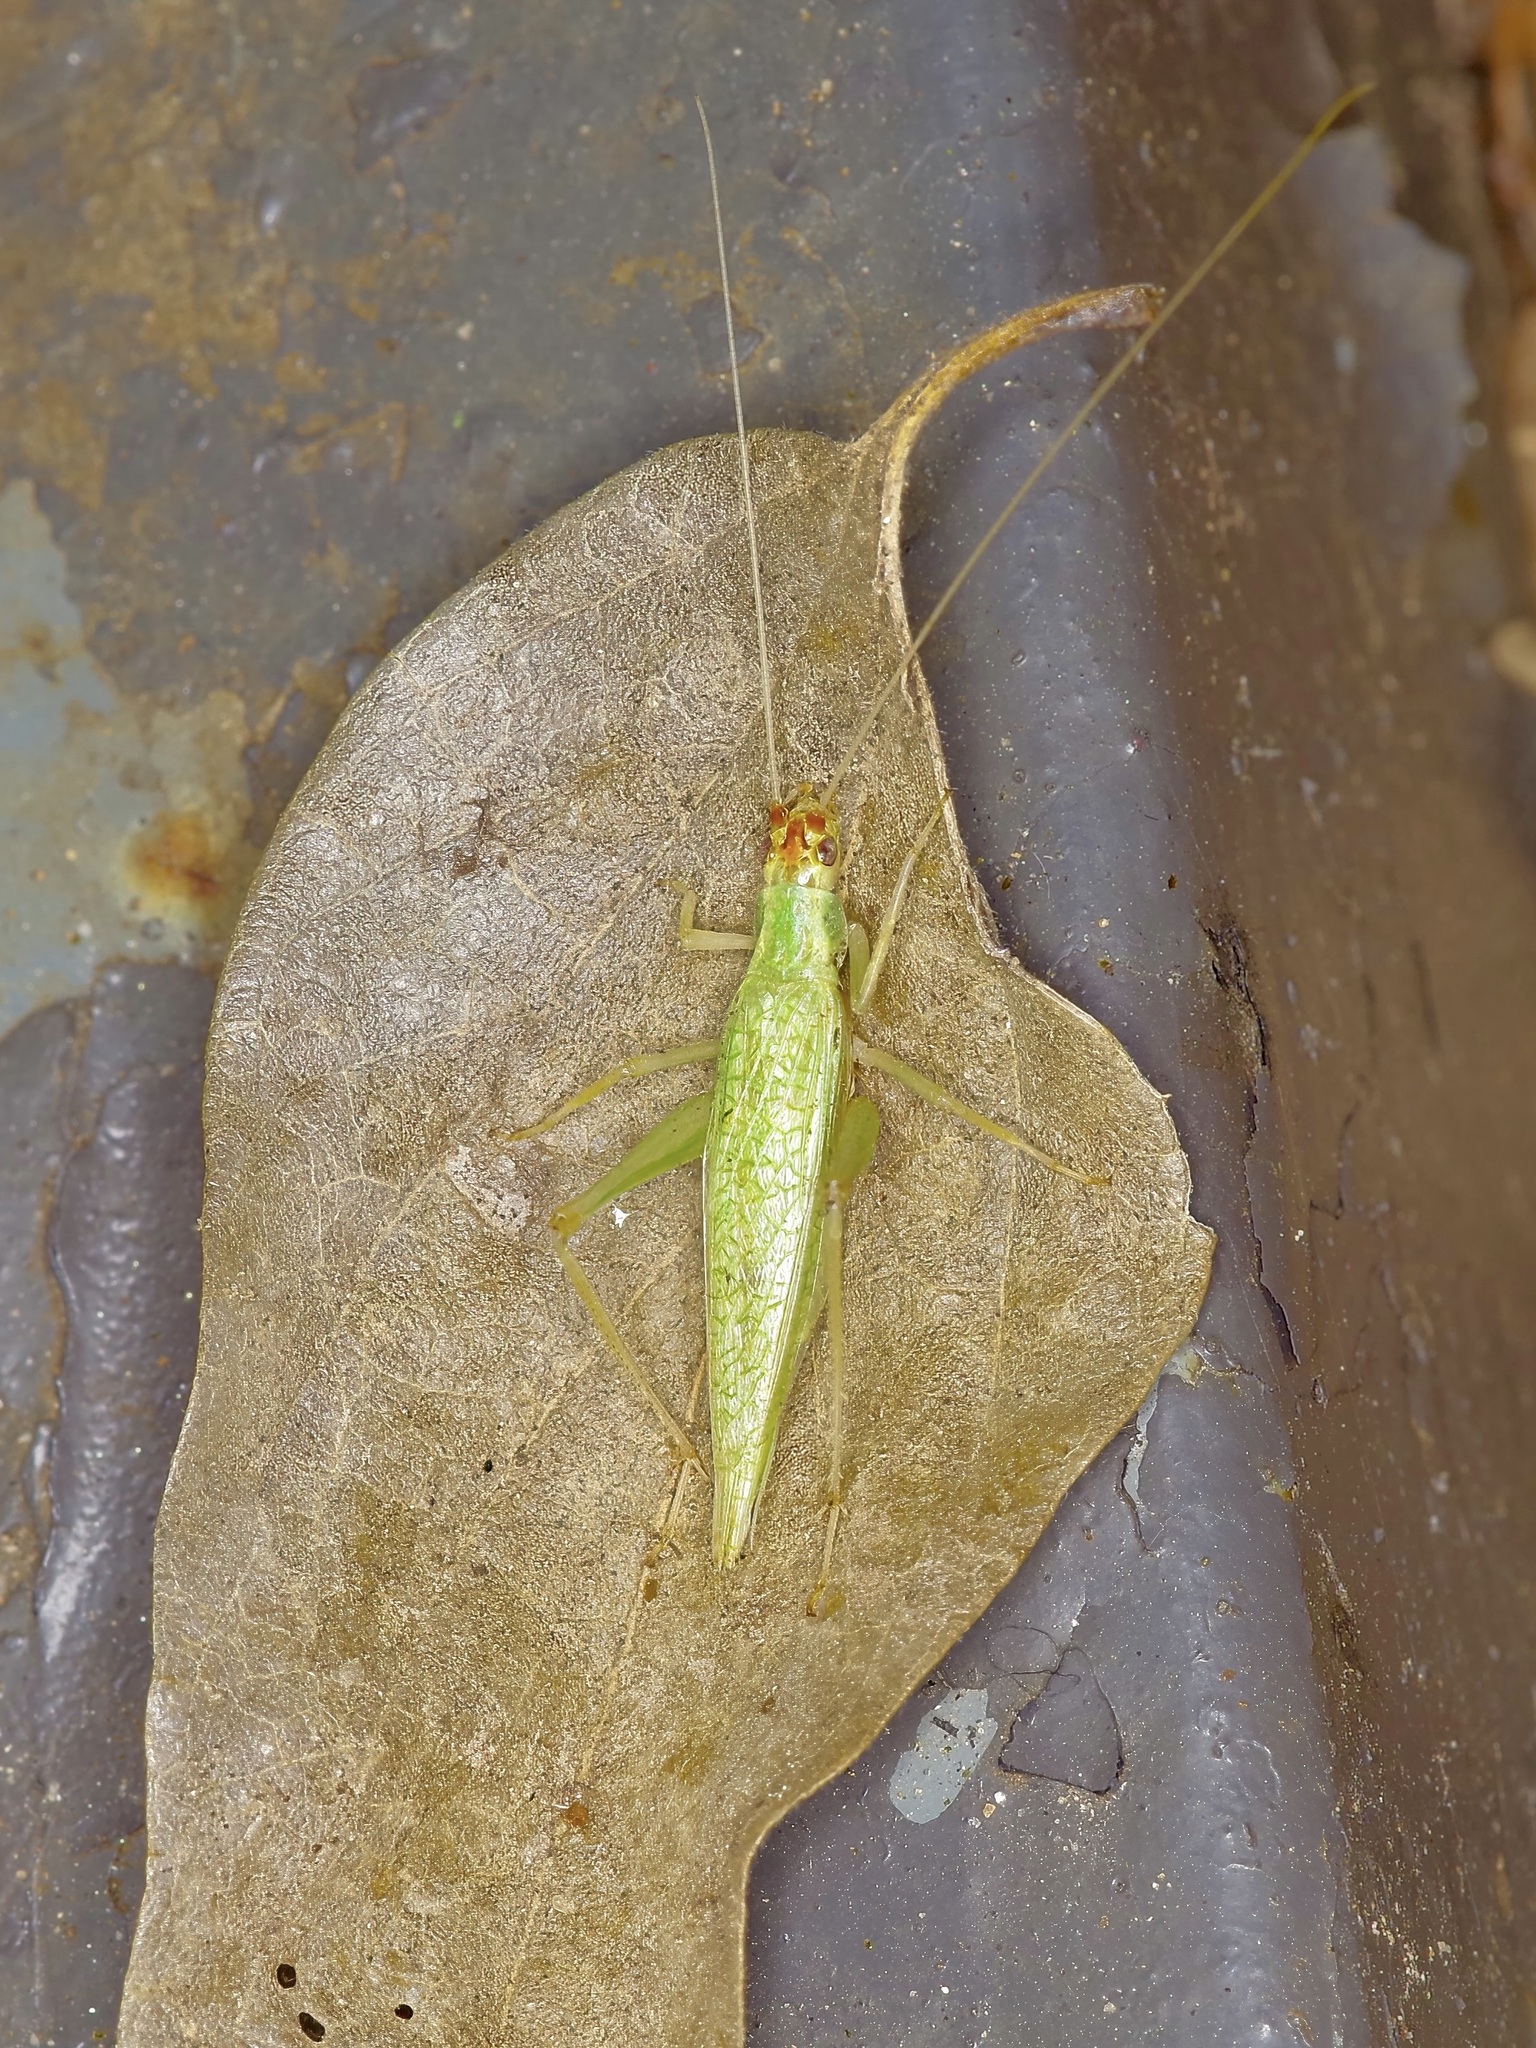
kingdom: Animalia
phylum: Arthropoda
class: Insecta
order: Orthoptera
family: Gryllidae
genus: Oecanthus
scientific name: Oecanthus niveus
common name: Narrow-winged tree cricket
